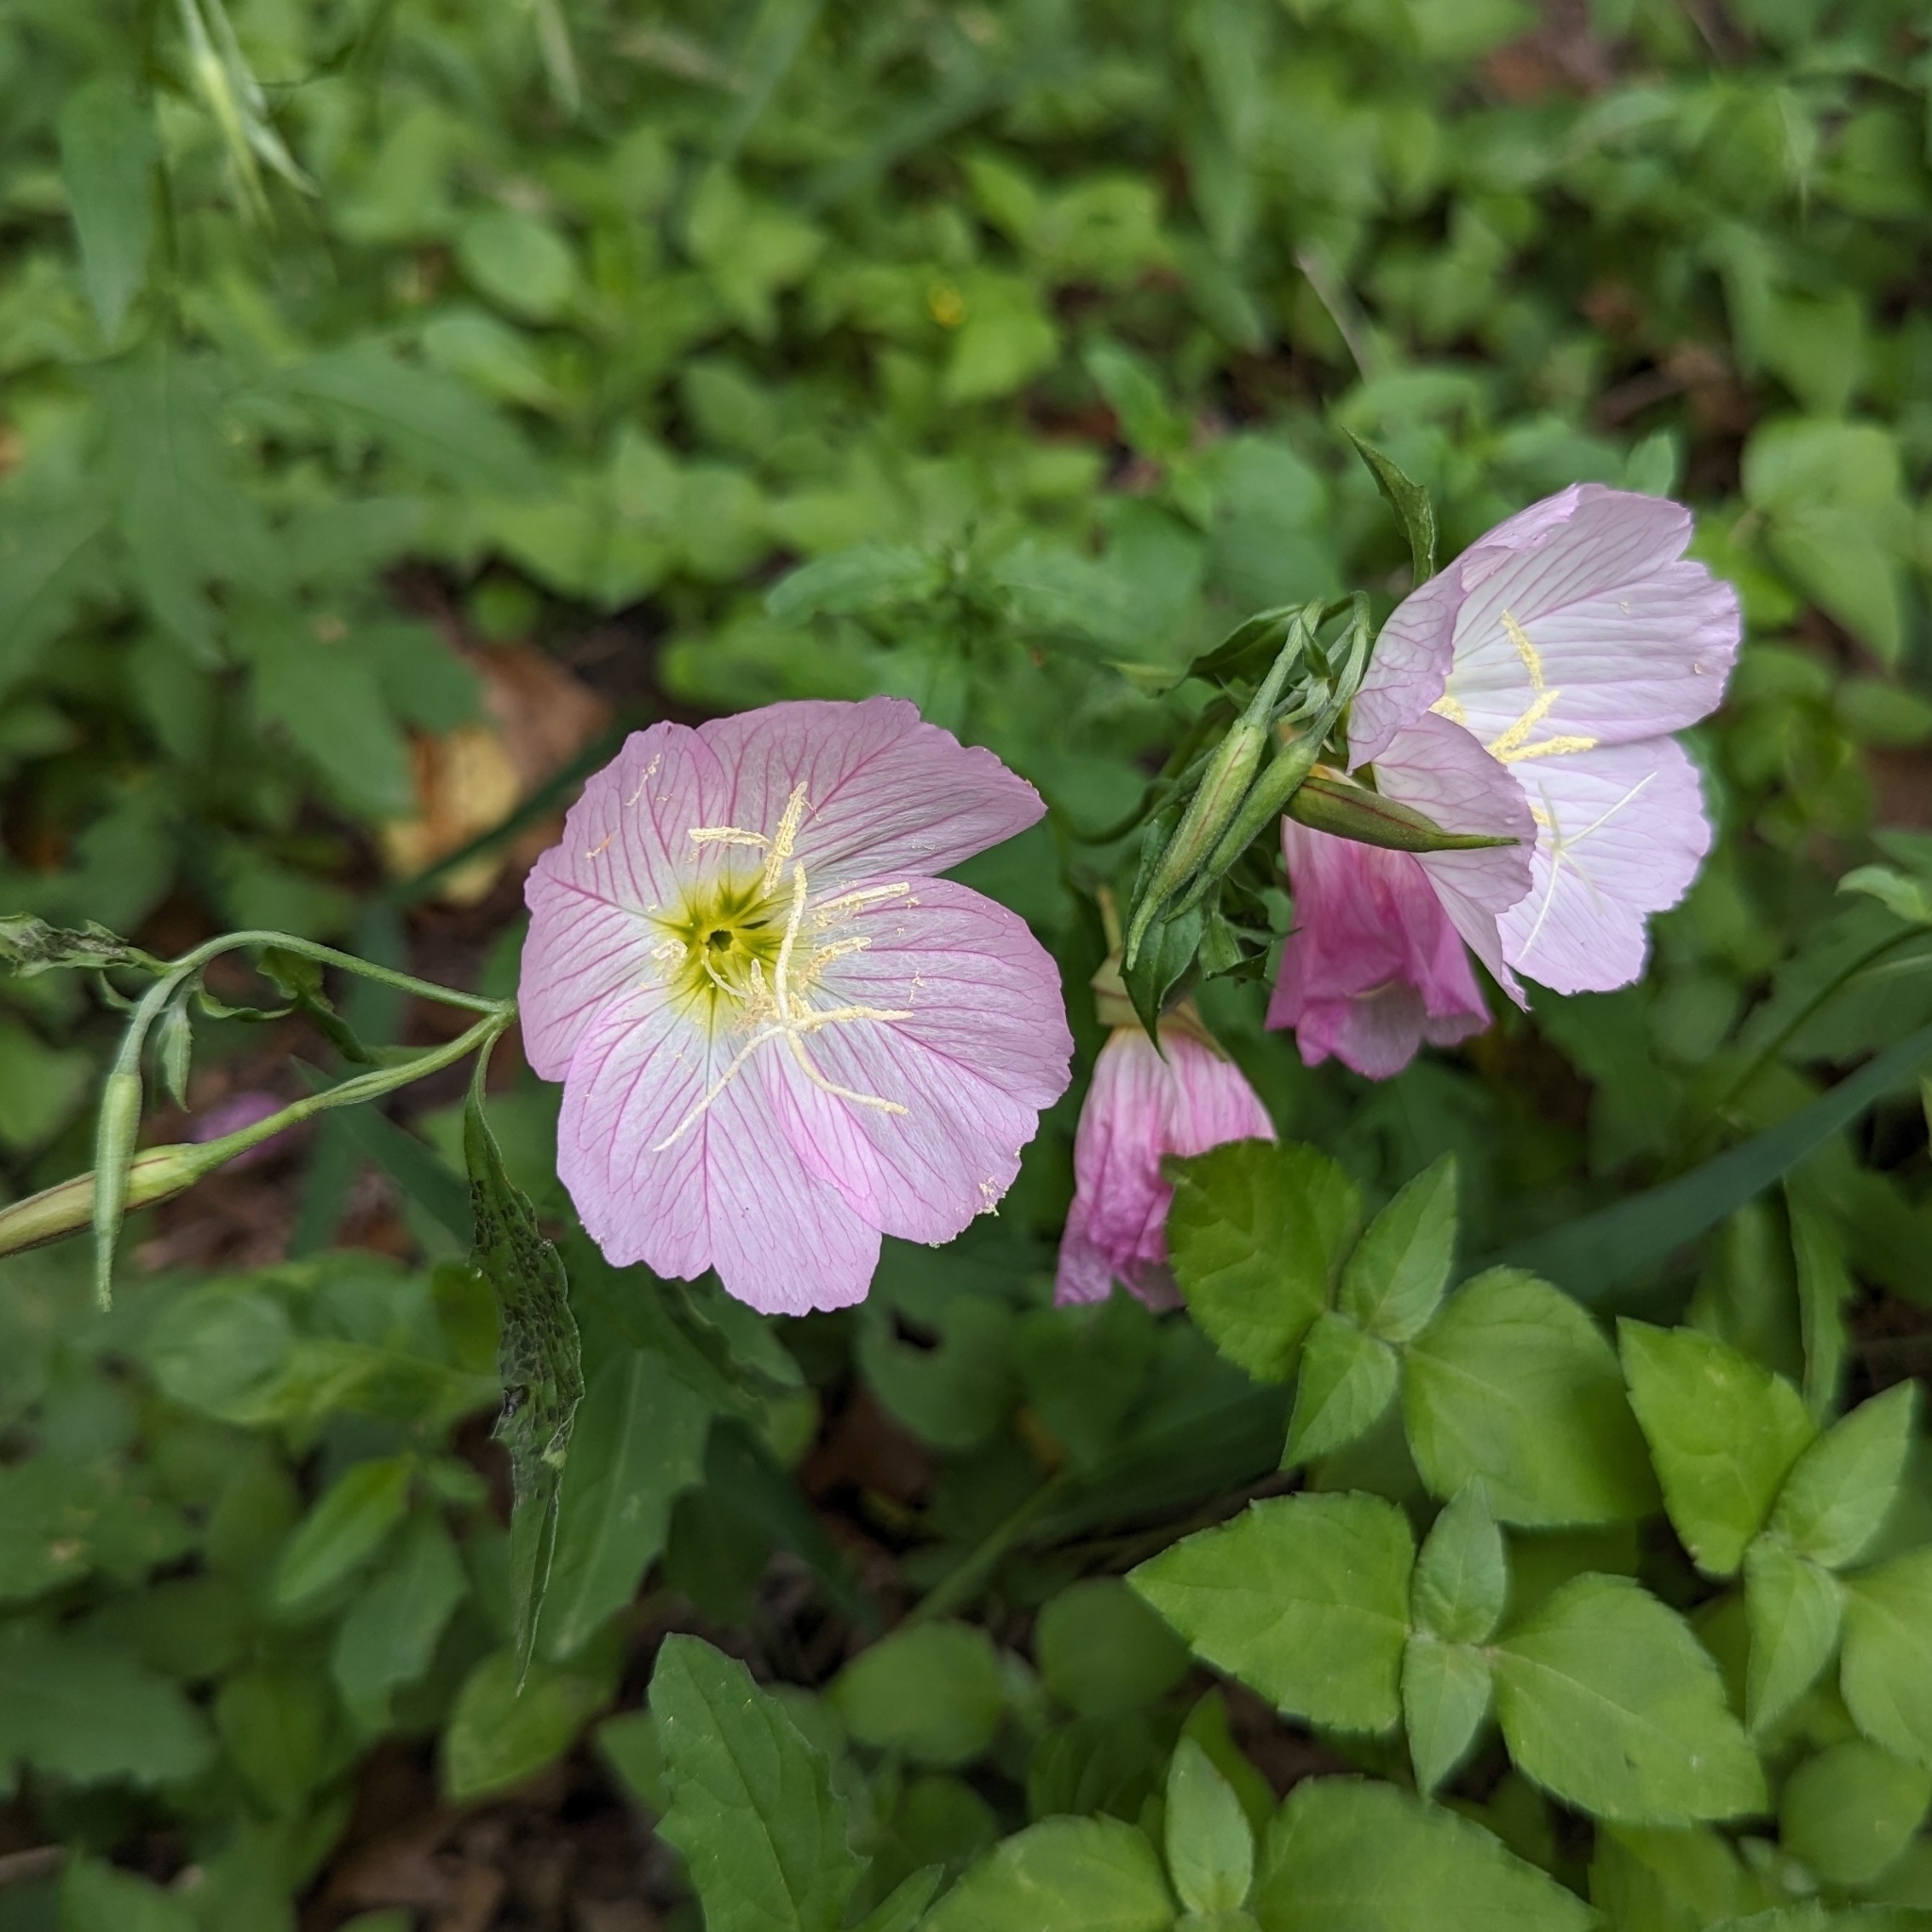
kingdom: Plantae
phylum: Tracheophyta
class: Magnoliopsida
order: Myrtales
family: Onagraceae
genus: Oenothera
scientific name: Oenothera speciosa
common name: White evening-primrose
